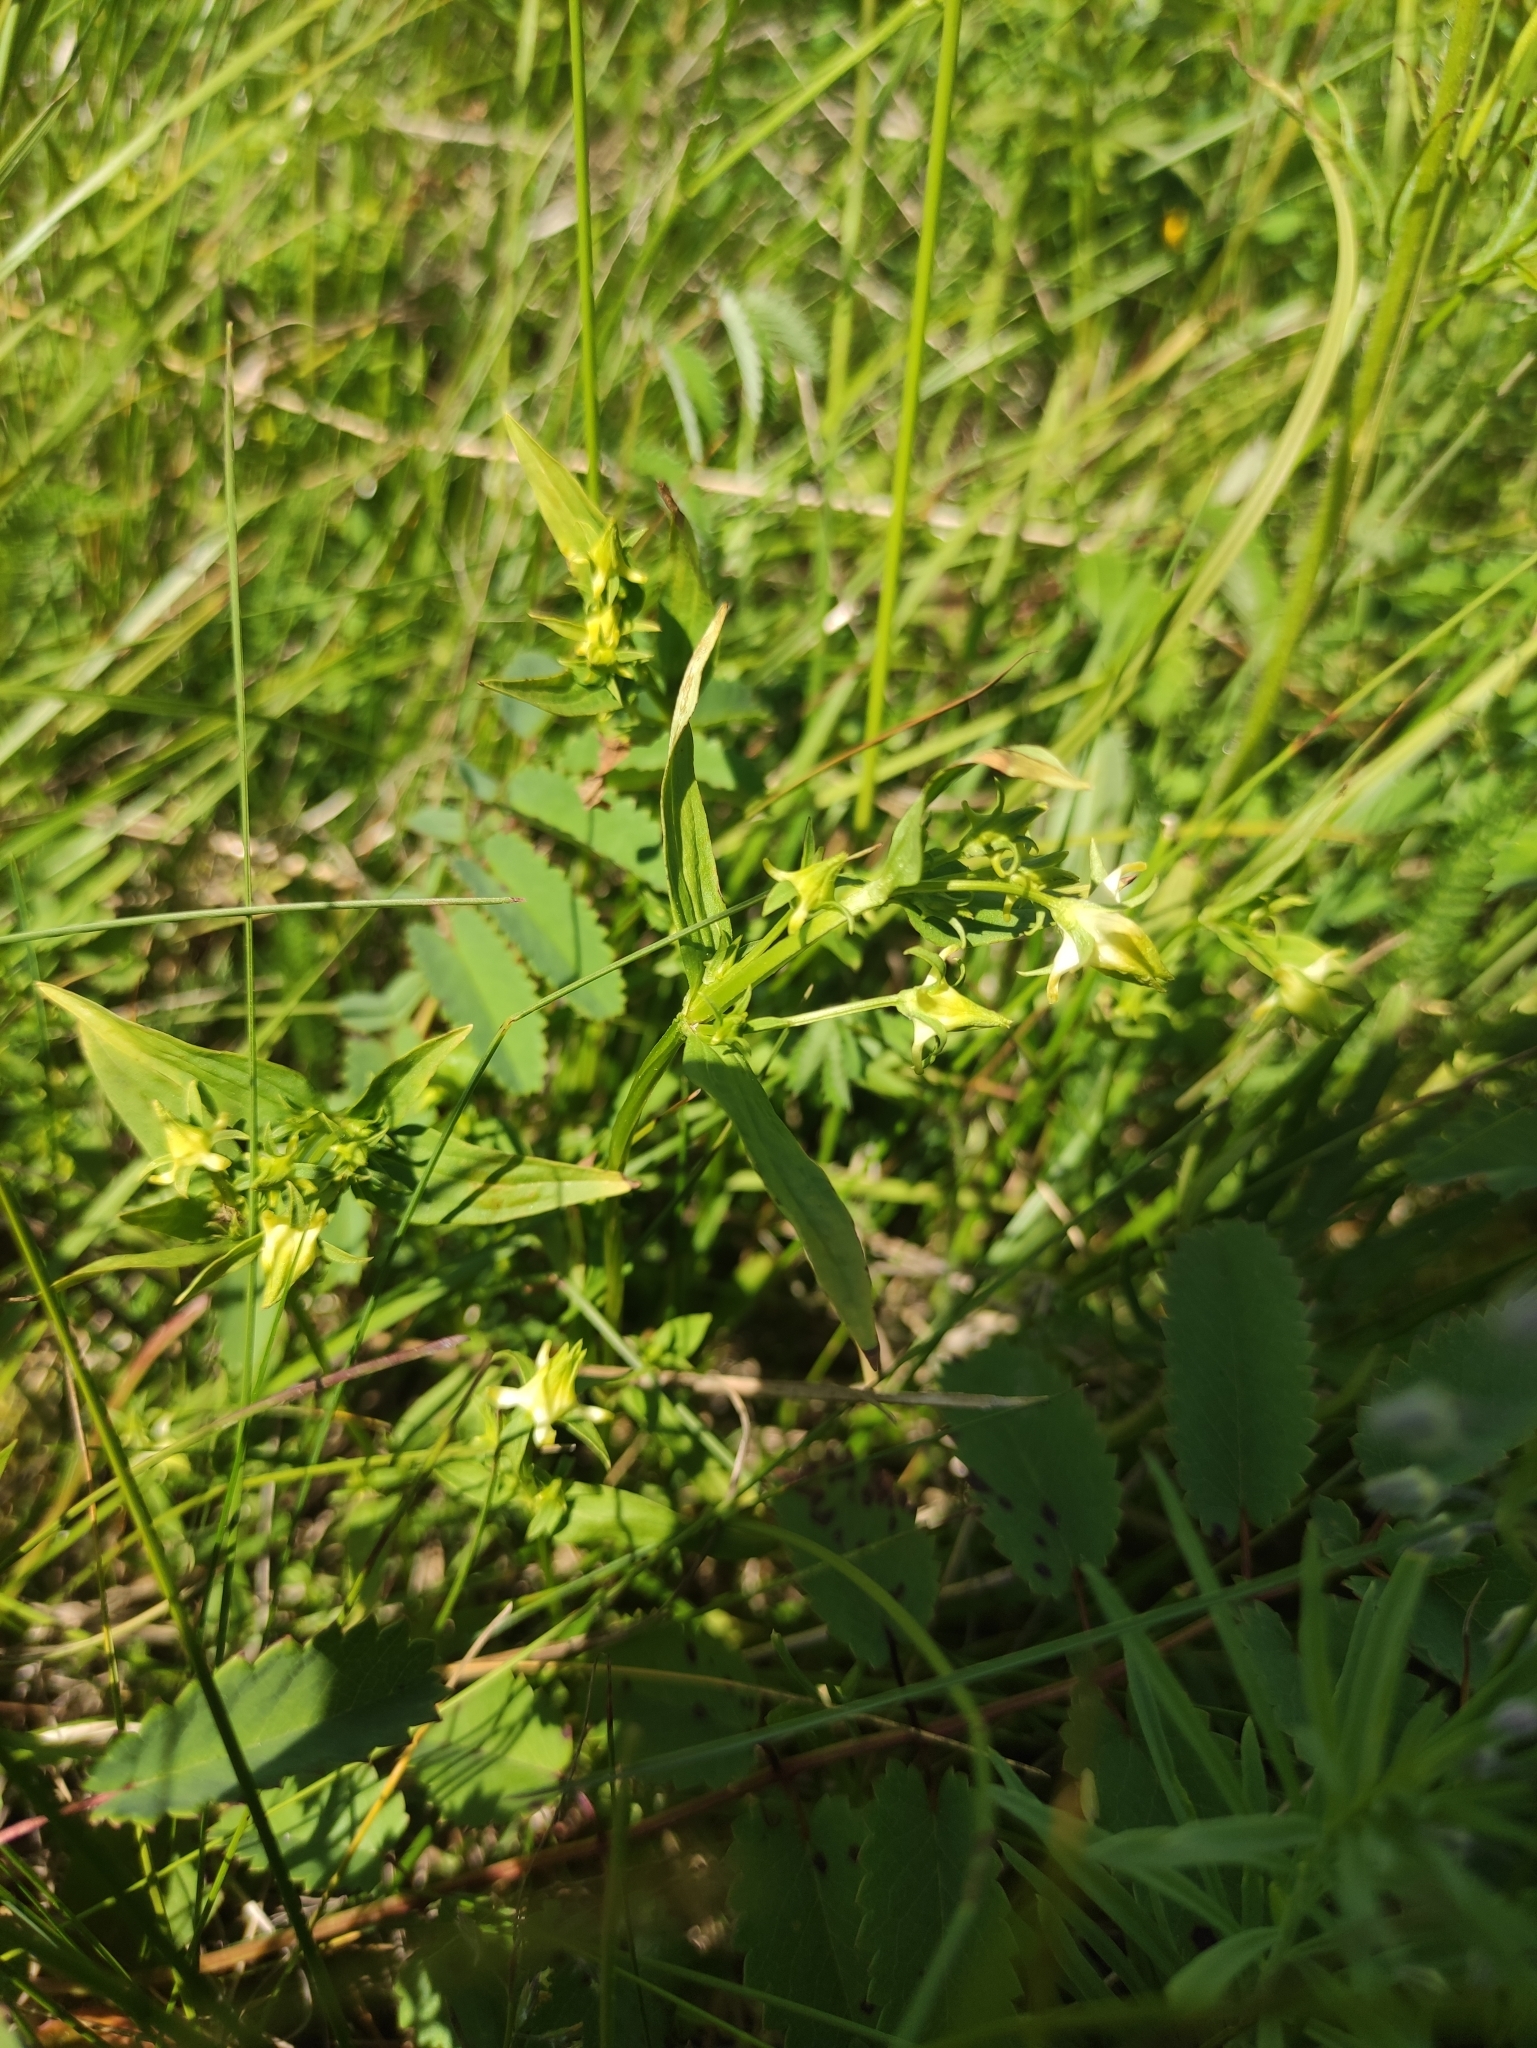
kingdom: Plantae
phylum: Tracheophyta
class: Magnoliopsida
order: Gentianales
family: Gentianaceae
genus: Halenia
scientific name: Halenia corniculata
